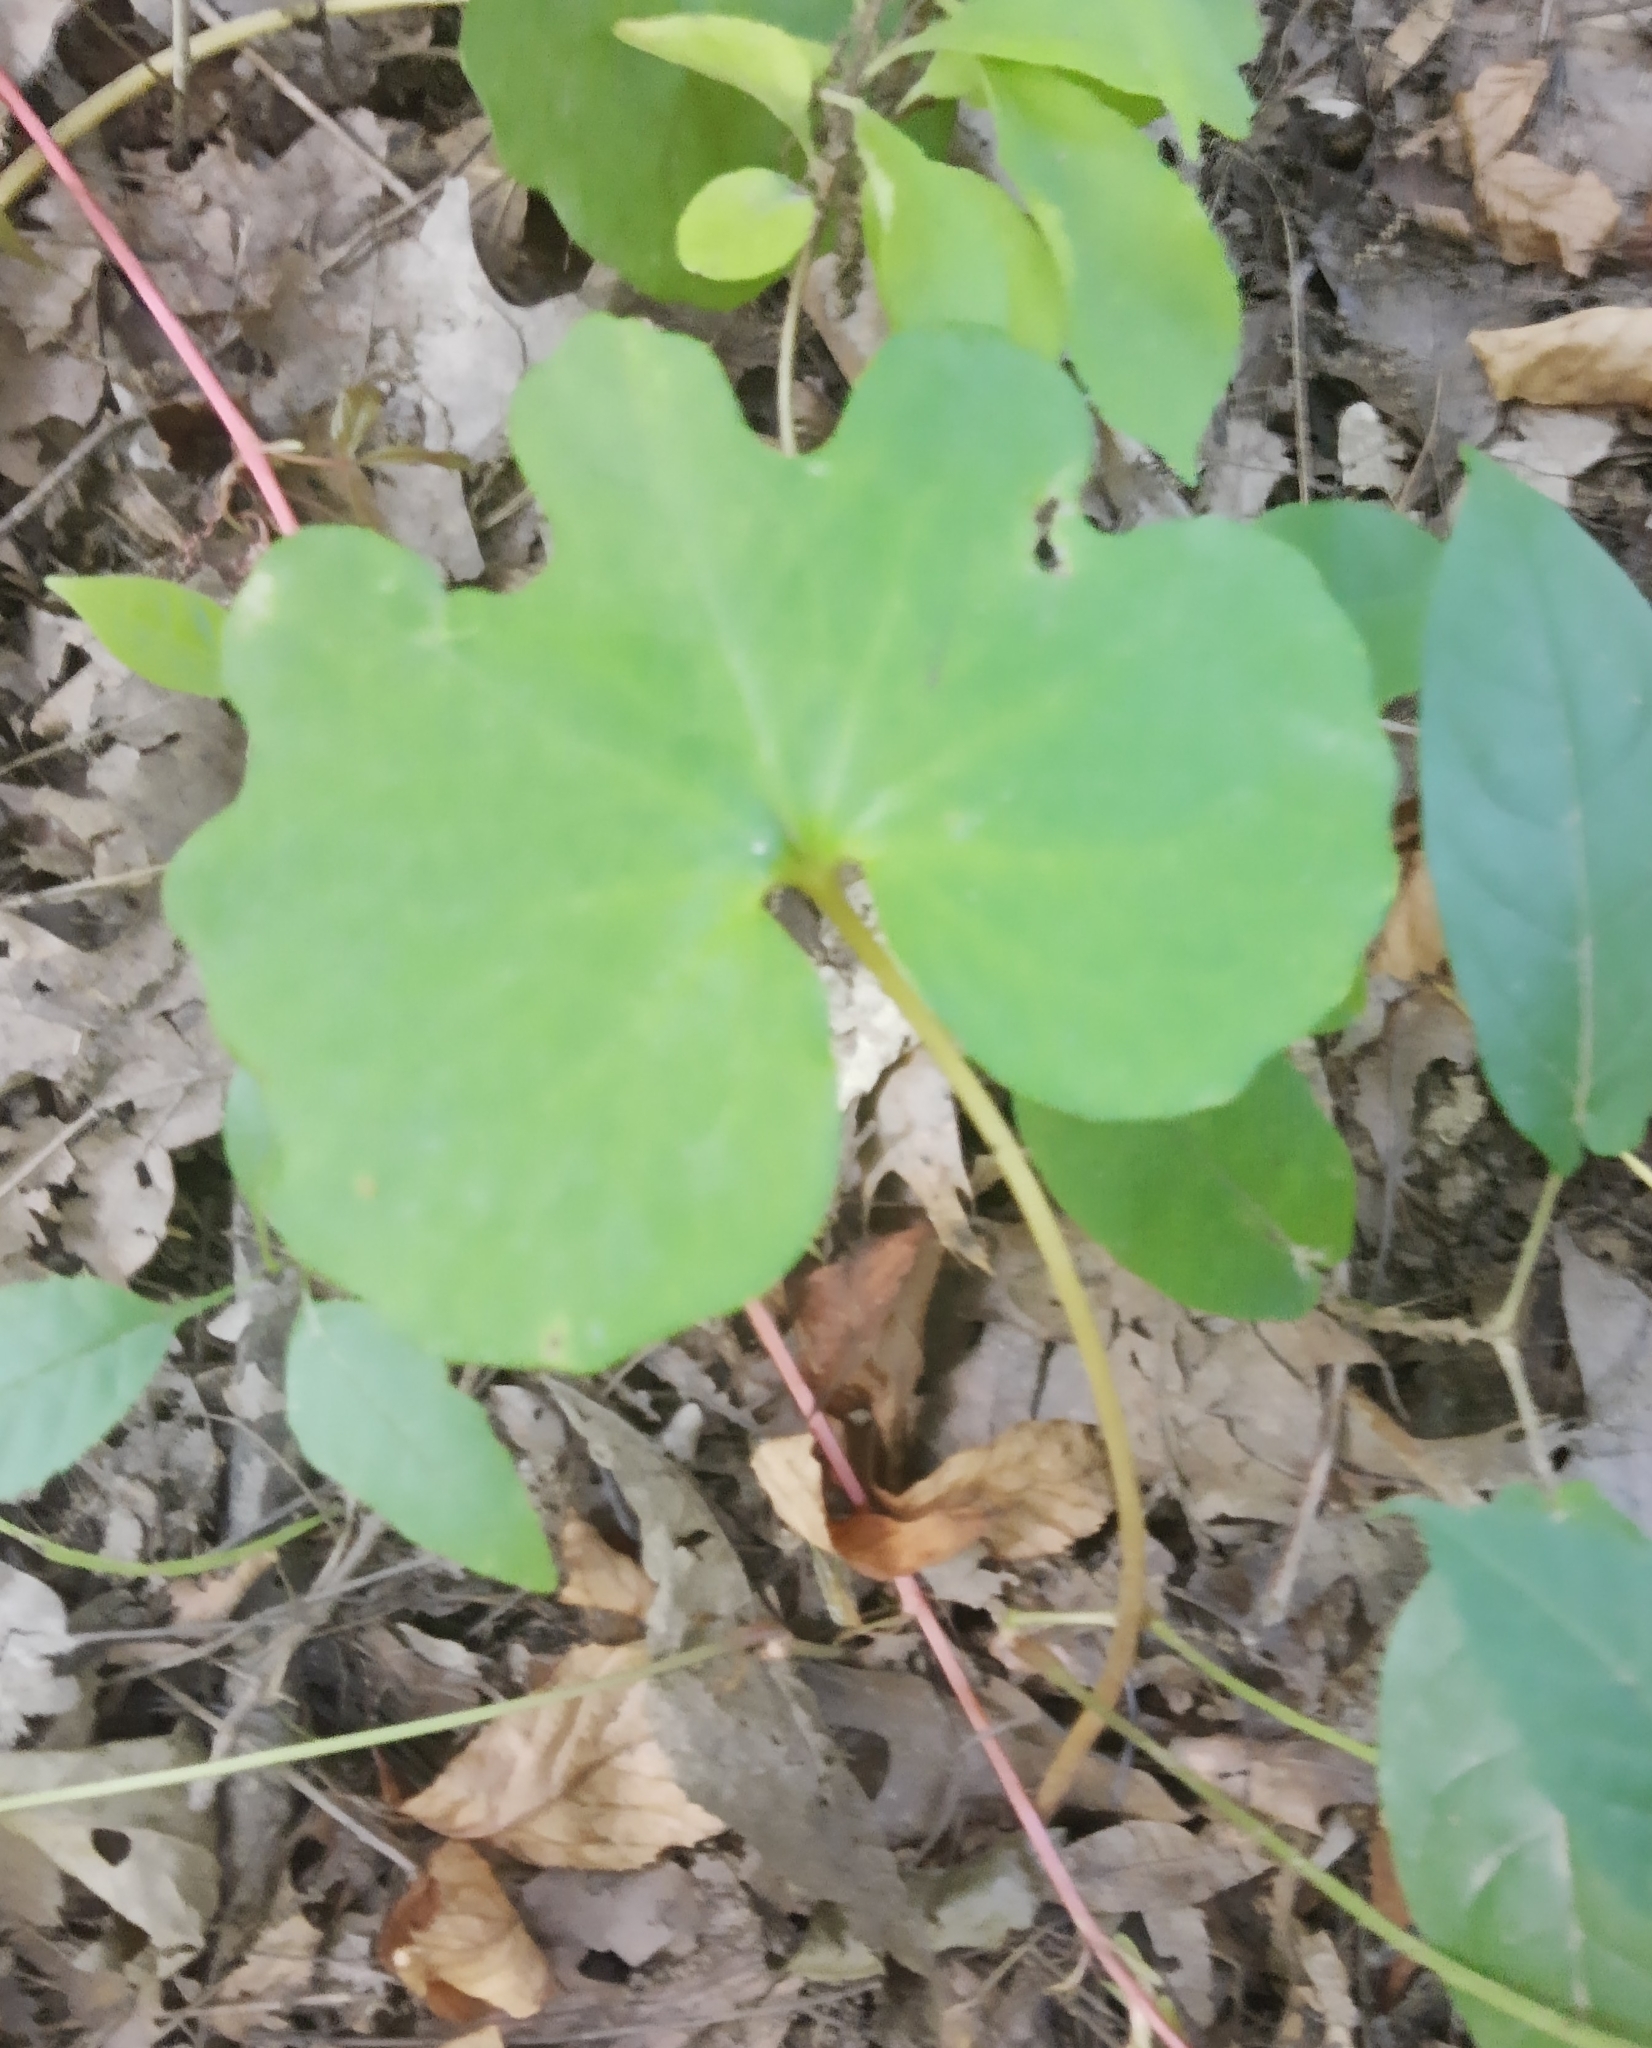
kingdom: Plantae
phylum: Tracheophyta
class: Magnoliopsida
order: Ranunculales
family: Papaveraceae
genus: Sanguinaria
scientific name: Sanguinaria canadensis
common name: Bloodroot
